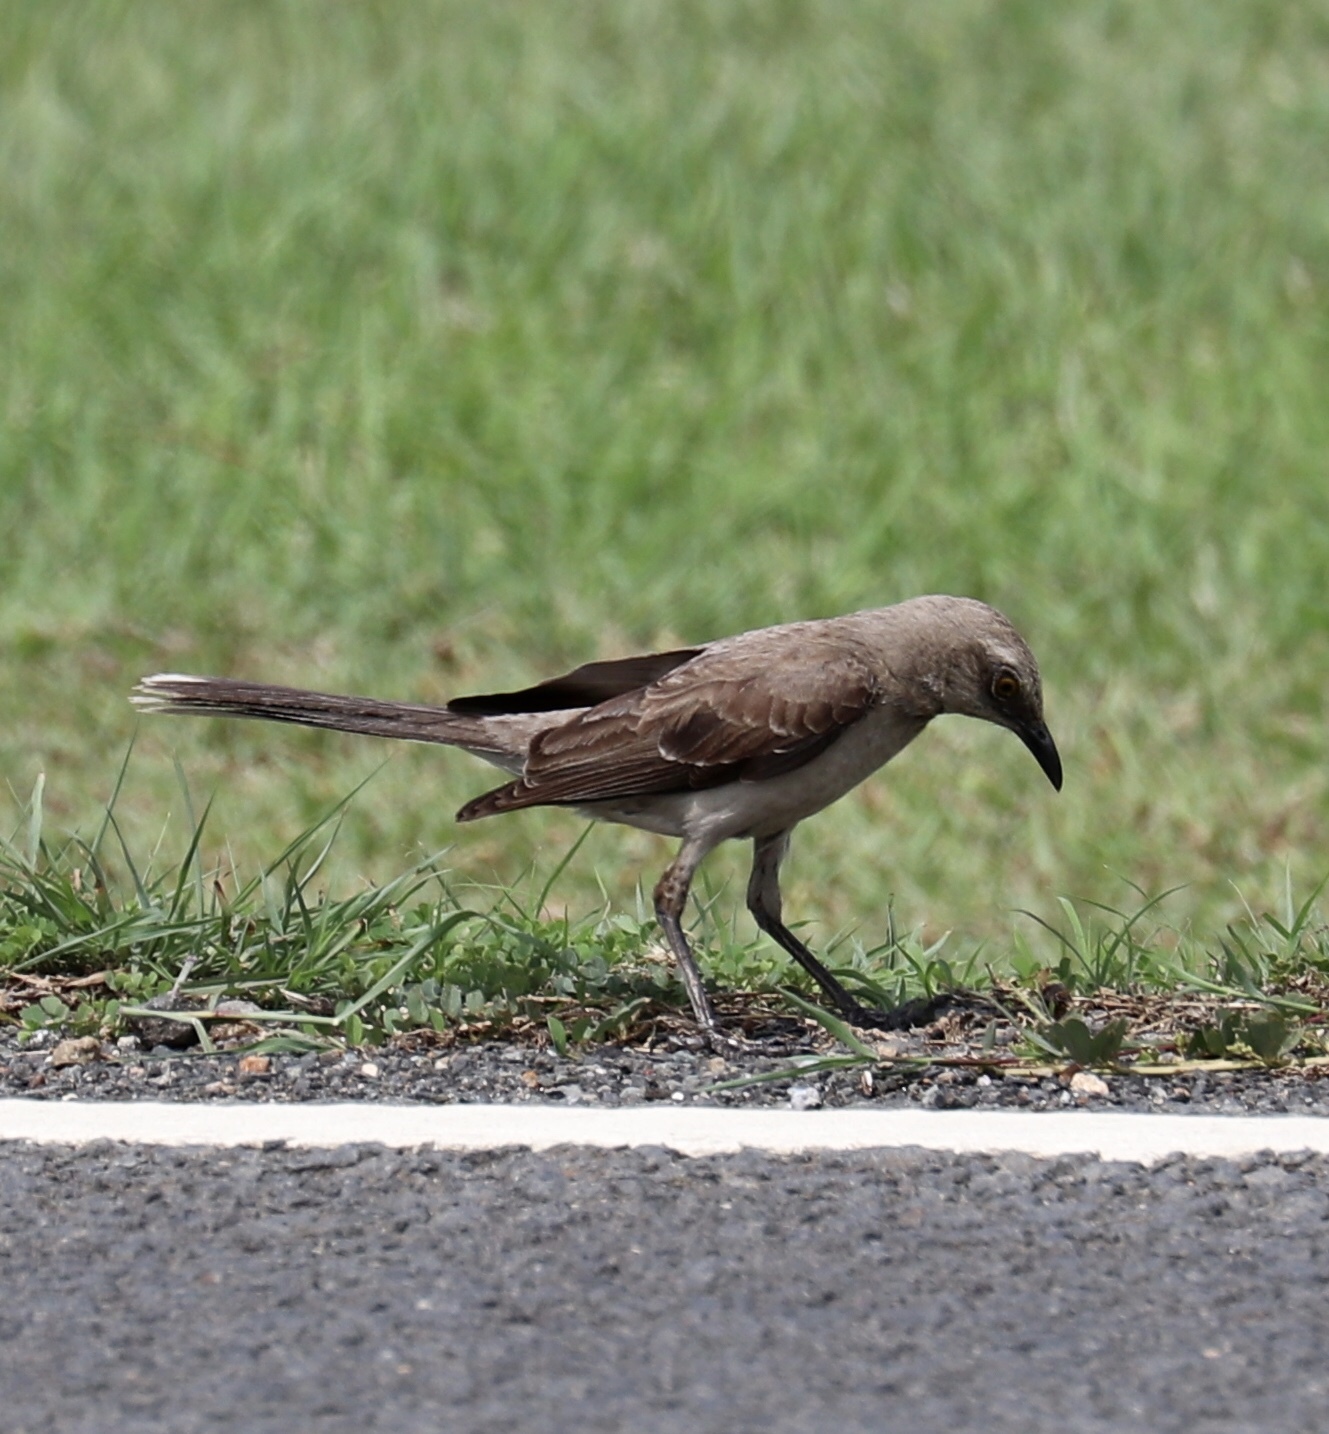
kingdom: Animalia
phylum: Chordata
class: Aves
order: Passeriformes
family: Mimidae
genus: Mimus
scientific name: Mimus gilvus
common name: Tropical mockingbird
